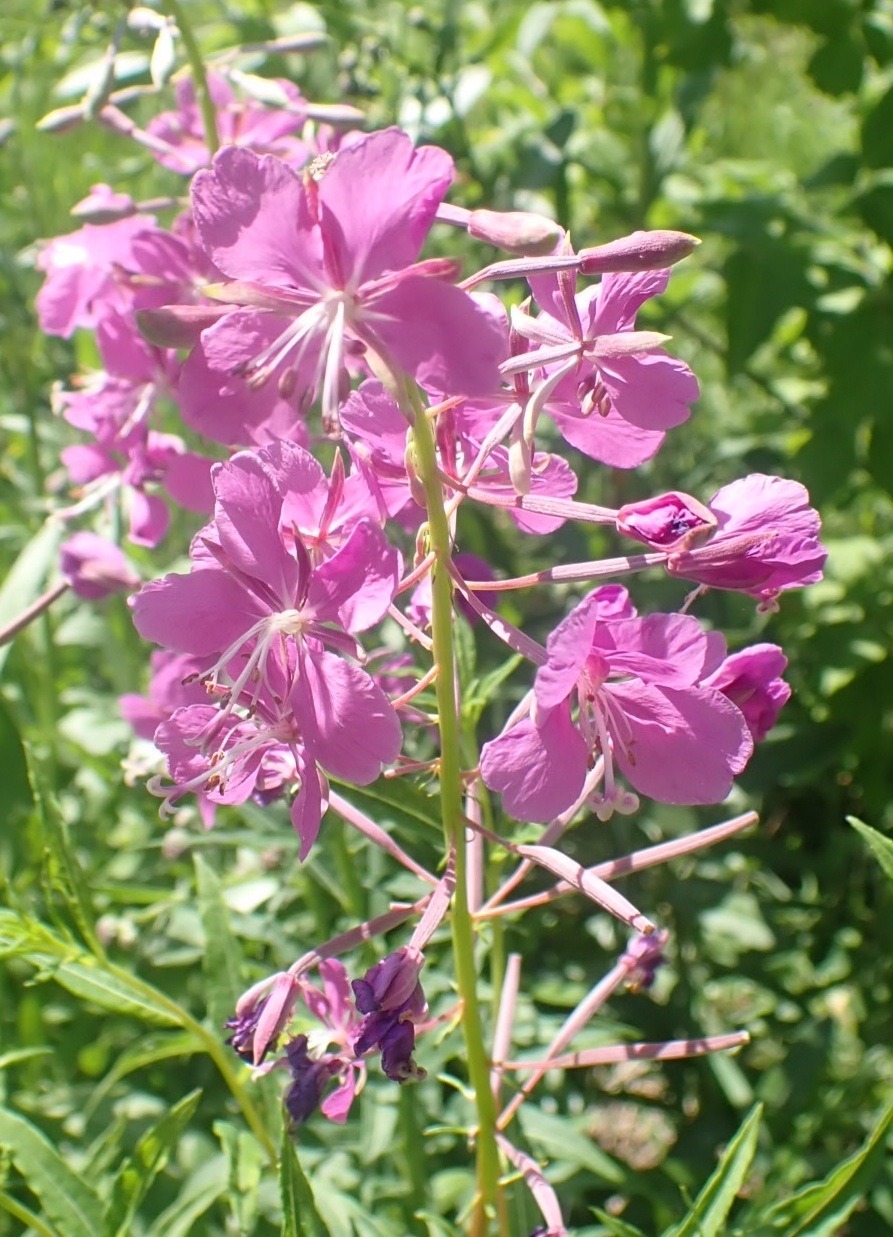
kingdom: Plantae
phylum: Tracheophyta
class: Magnoliopsida
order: Myrtales
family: Onagraceae
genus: Chamaenerion
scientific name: Chamaenerion angustifolium
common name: Fireweed
